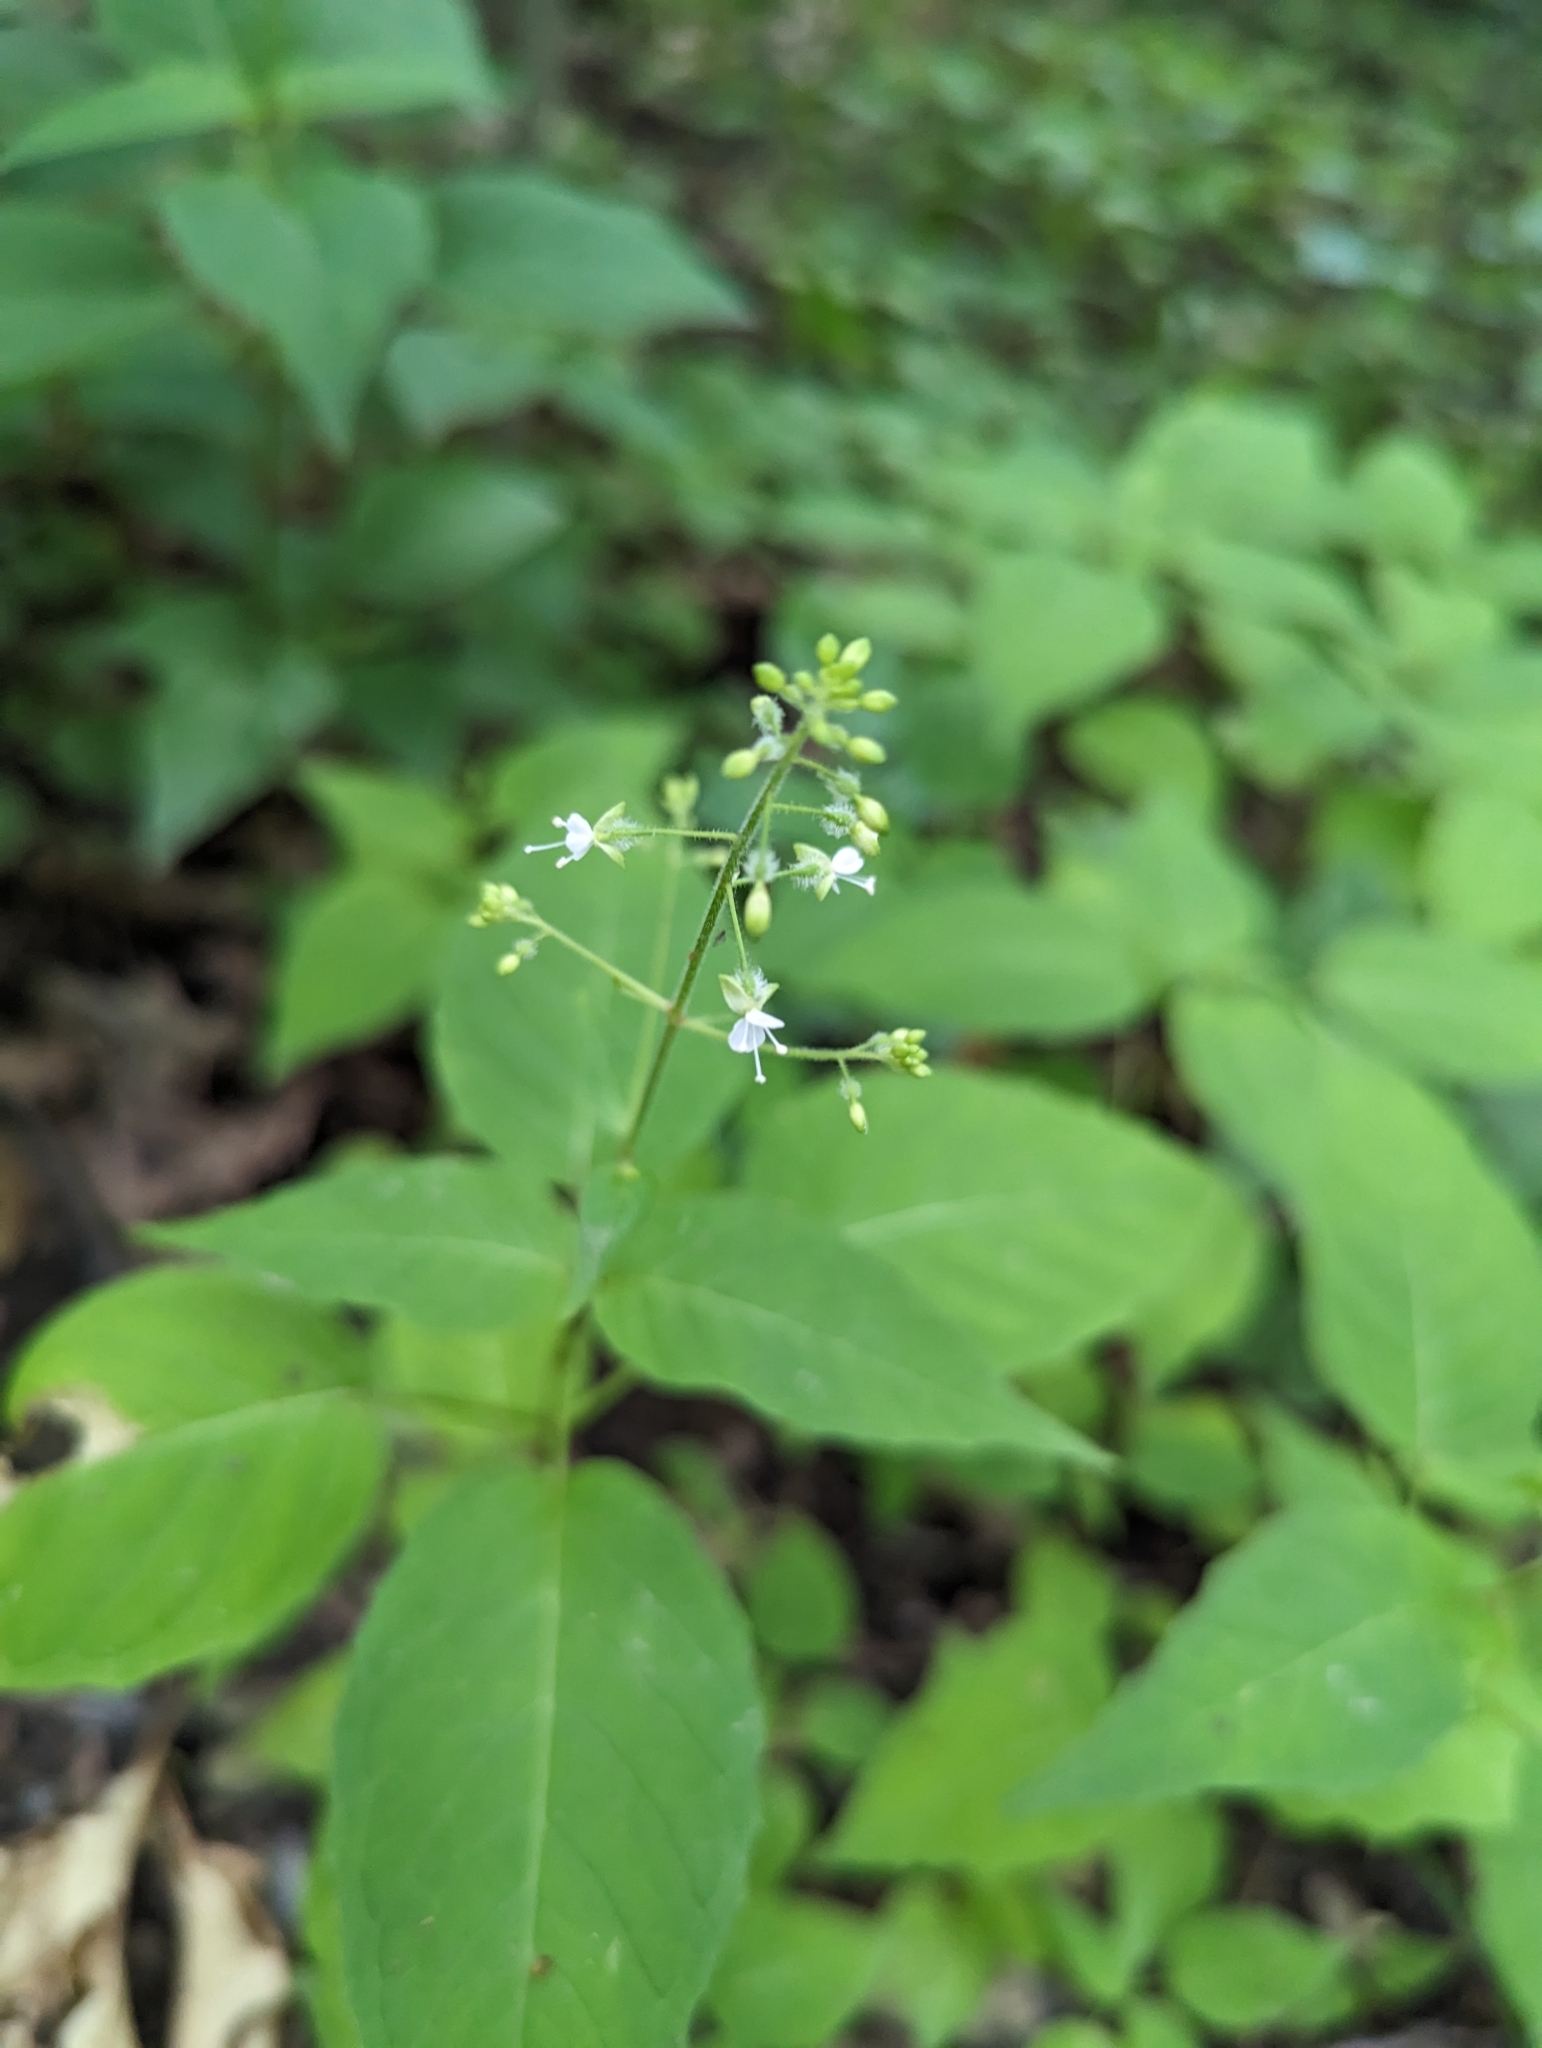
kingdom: Plantae
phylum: Tracheophyta
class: Magnoliopsida
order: Myrtales
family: Onagraceae
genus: Circaea
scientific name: Circaea canadensis
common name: Broad-leaved enchanter's nightshade
